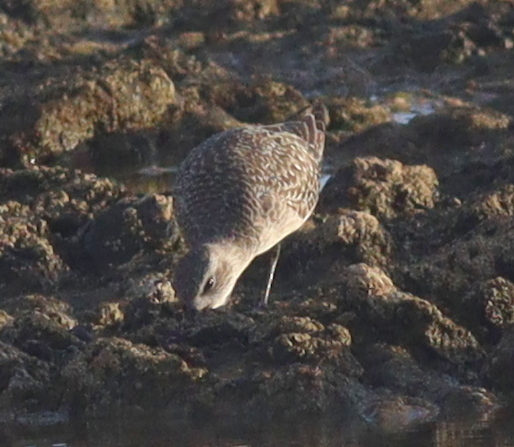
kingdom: Animalia
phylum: Chordata
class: Aves
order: Charadriiformes
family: Charadriidae
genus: Pluvialis
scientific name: Pluvialis squatarola
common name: Grey plover
